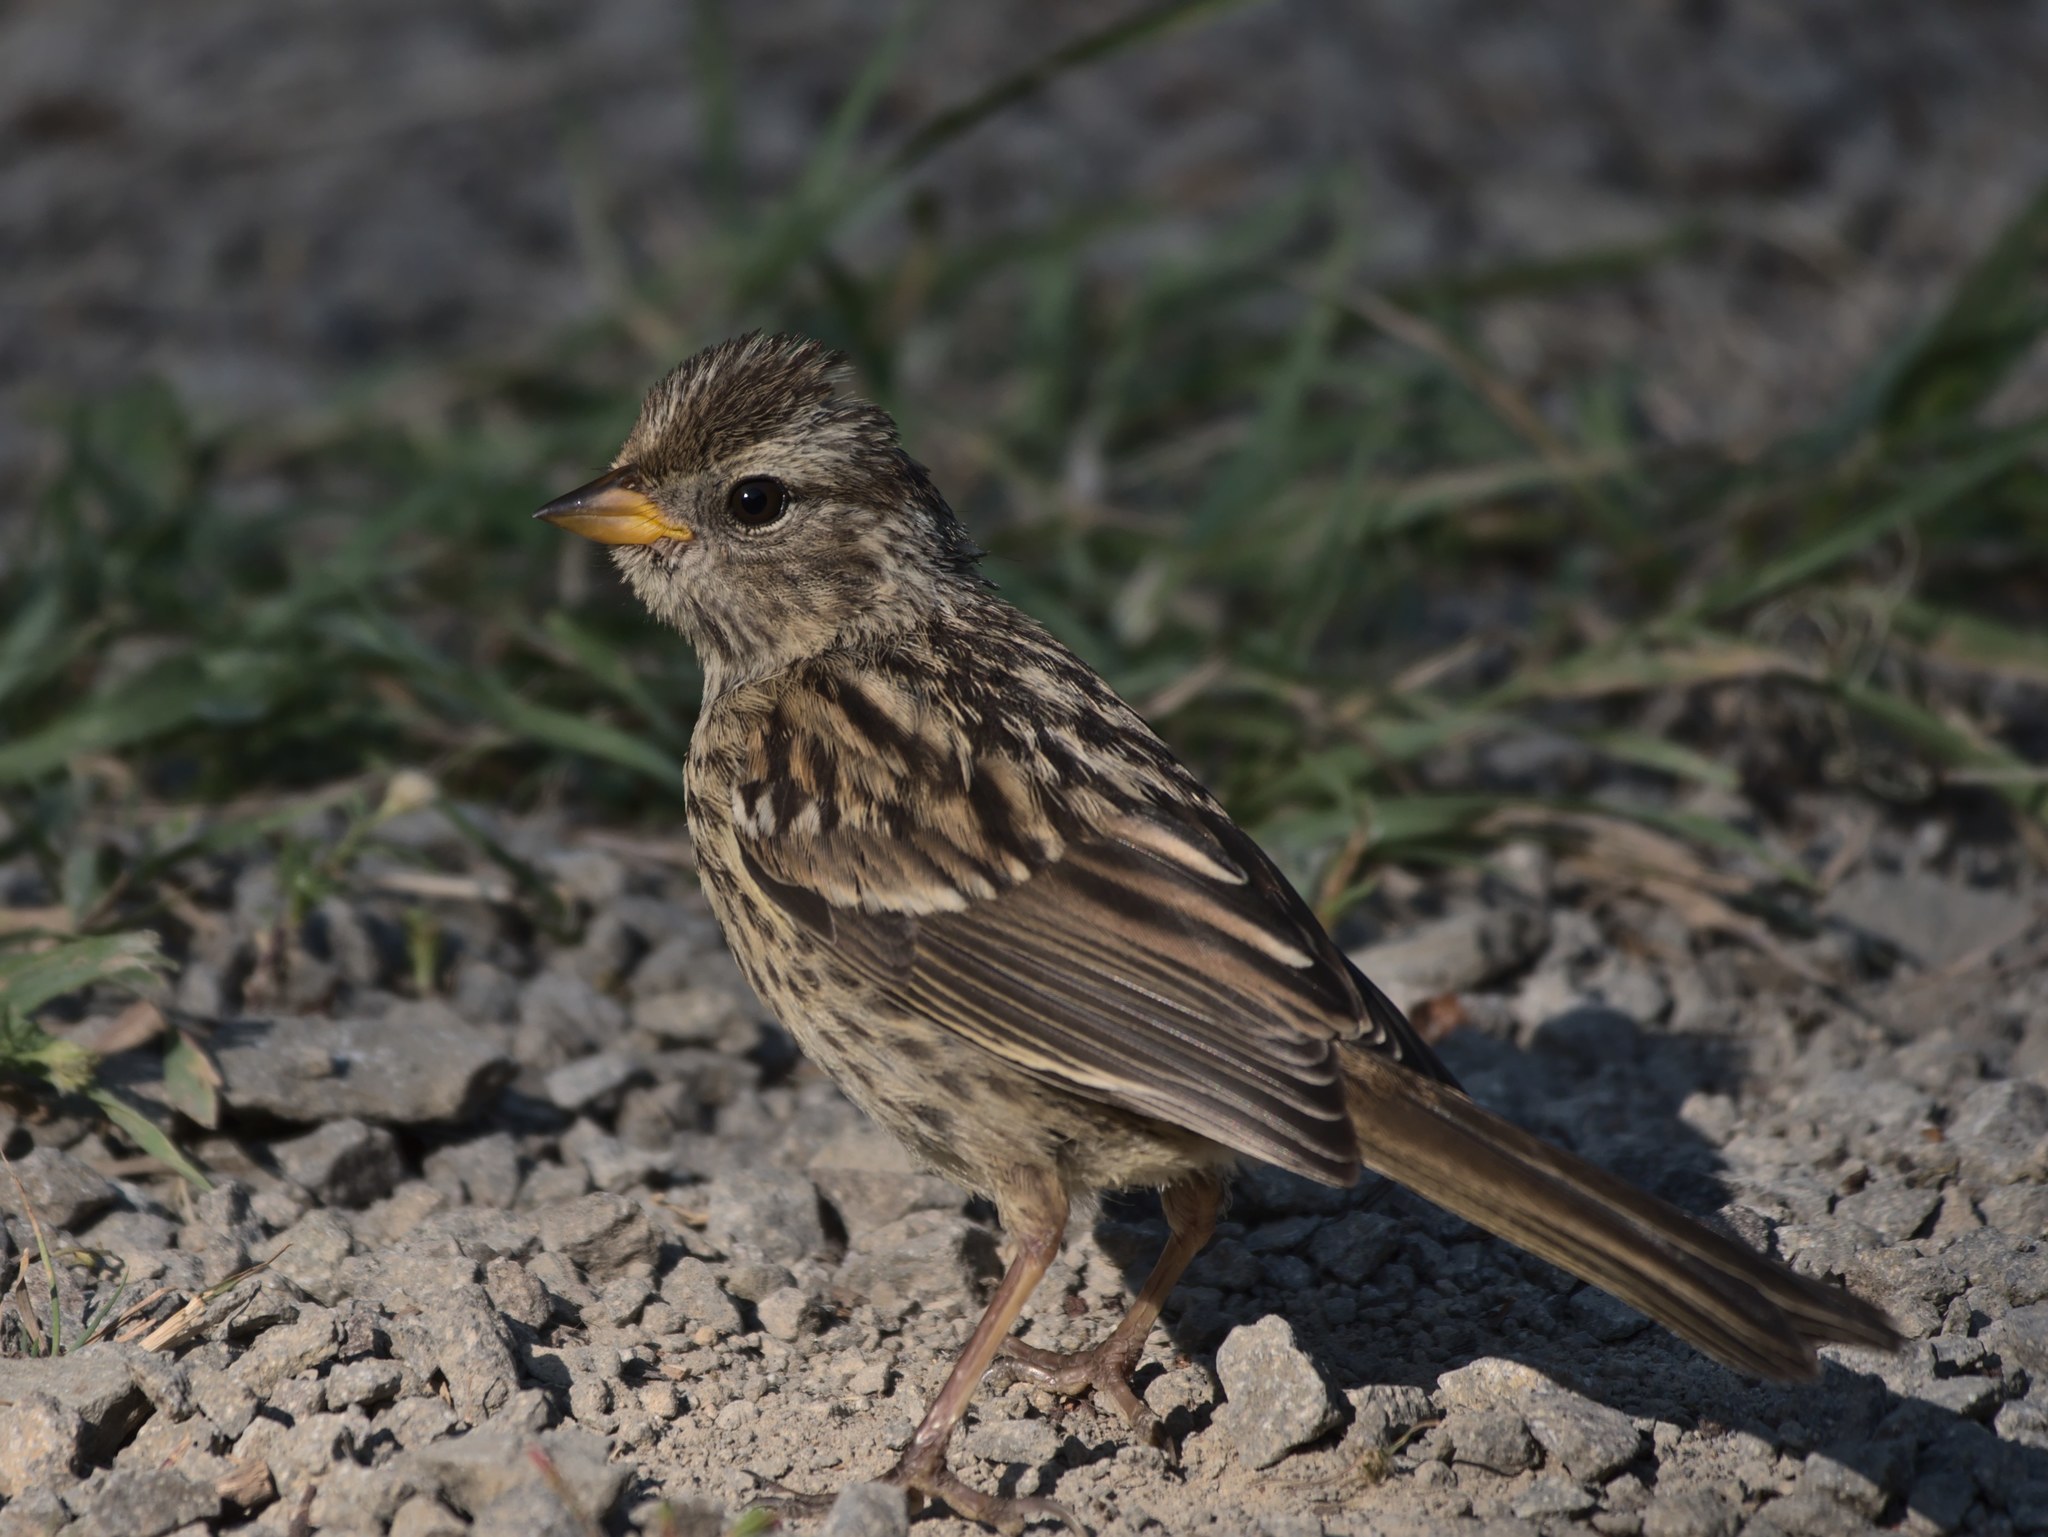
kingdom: Animalia
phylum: Chordata
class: Aves
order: Passeriformes
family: Passerellidae
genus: Zonotrichia
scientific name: Zonotrichia leucophrys
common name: White-crowned sparrow
